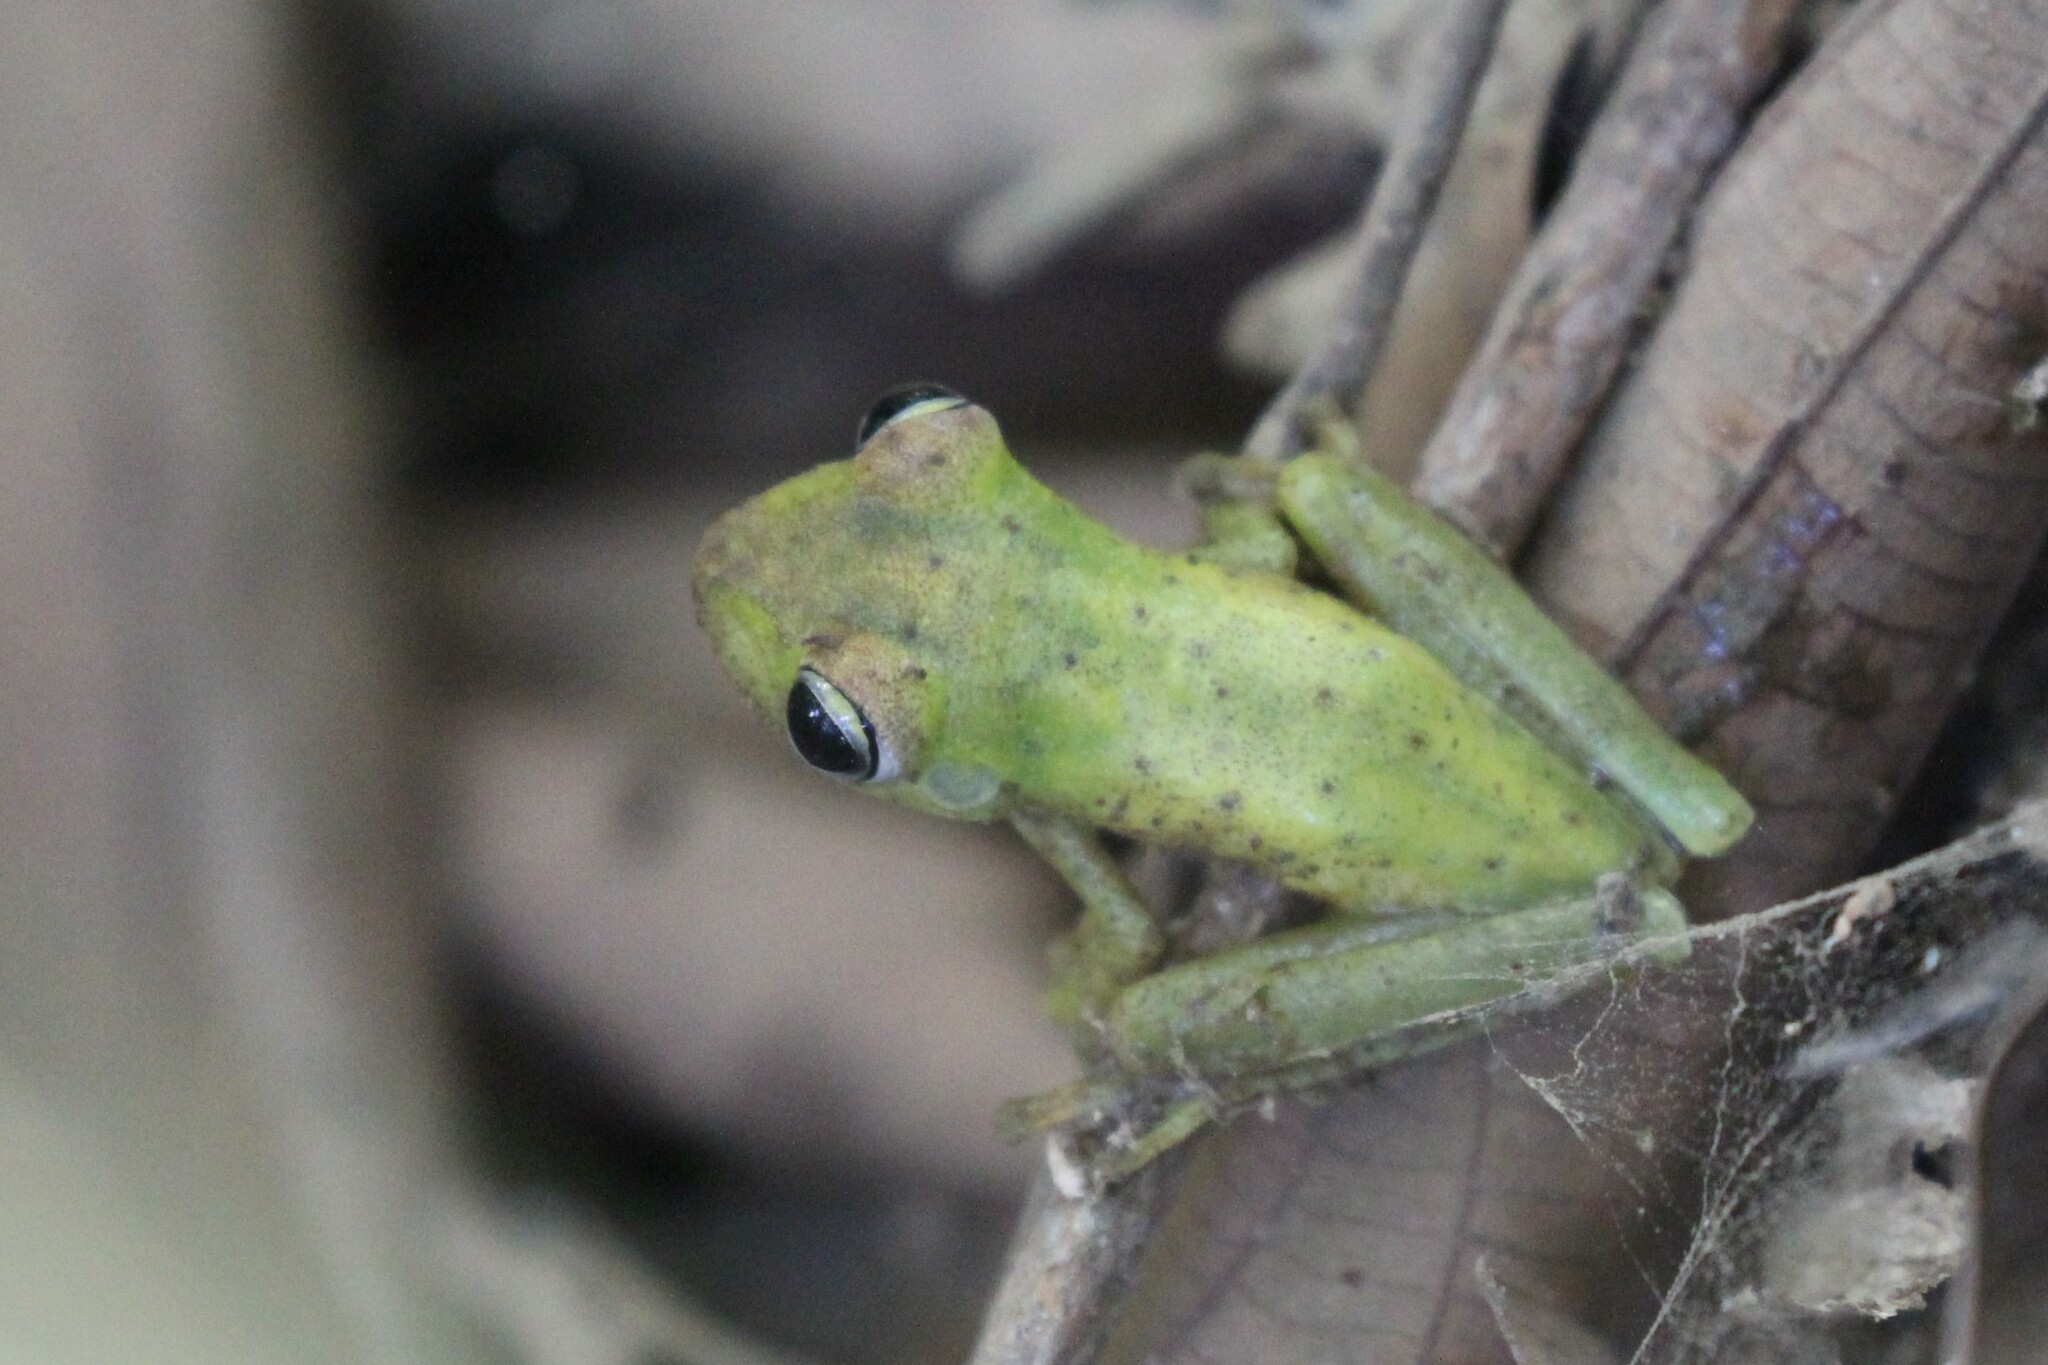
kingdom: Animalia
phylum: Chordata
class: Amphibia
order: Anura
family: Hylidae
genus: Boana
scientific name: Boana rosenbergi
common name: Rosenberg´s gladiator treefrog
